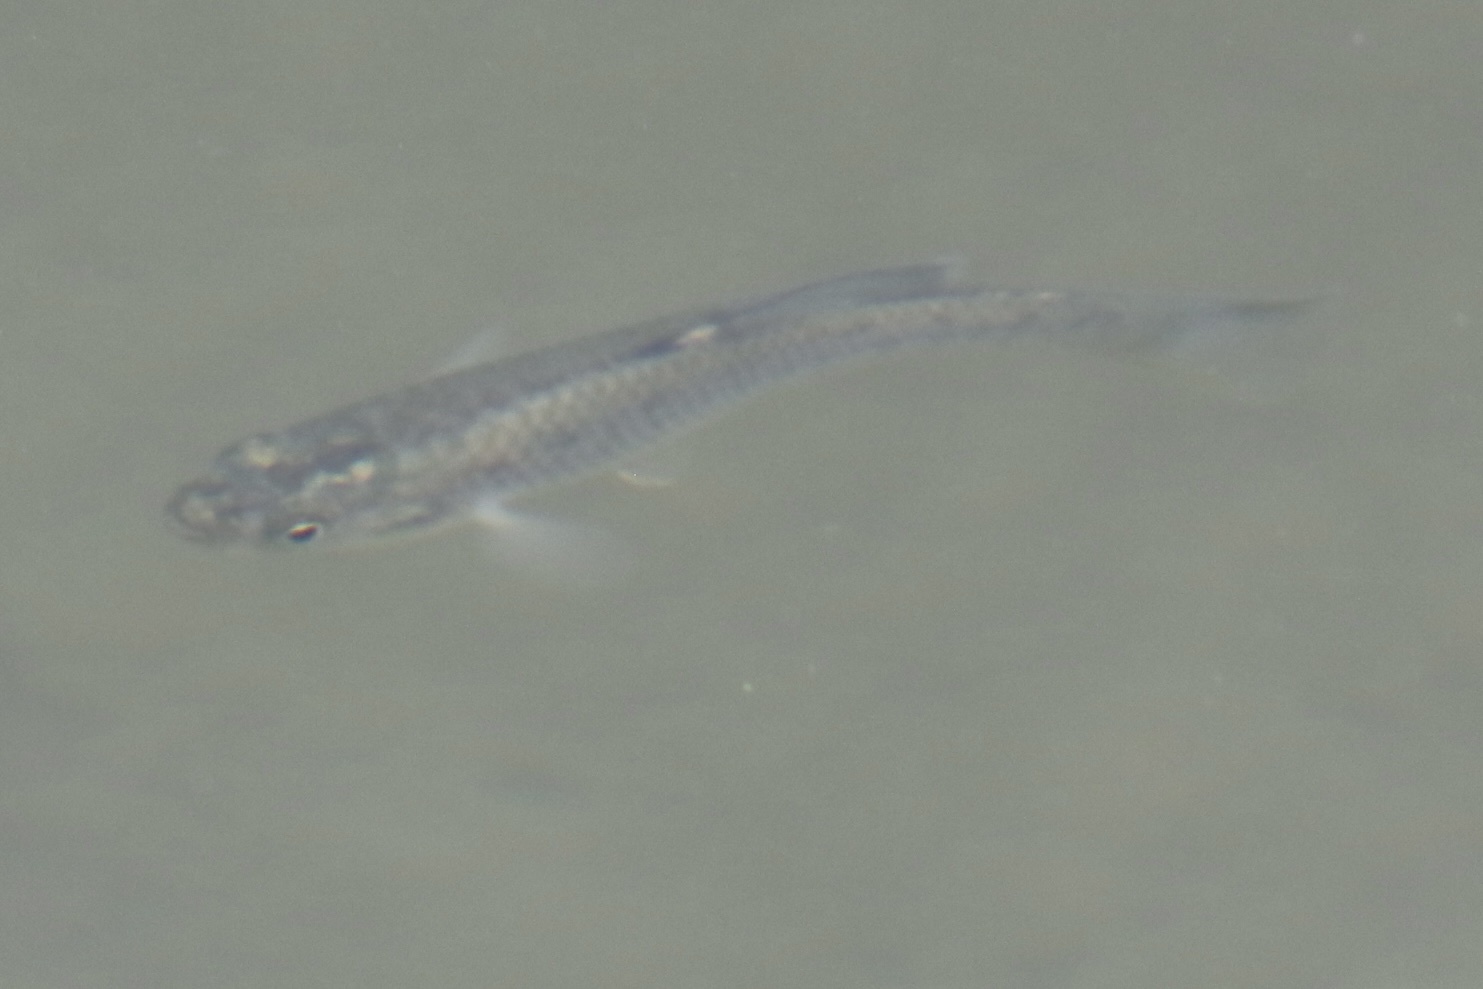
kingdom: Animalia
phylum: Chordata
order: Cyprinodontiformes
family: Fundulidae
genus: Fundulus
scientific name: Fundulus parvipinnis
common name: California killifish
